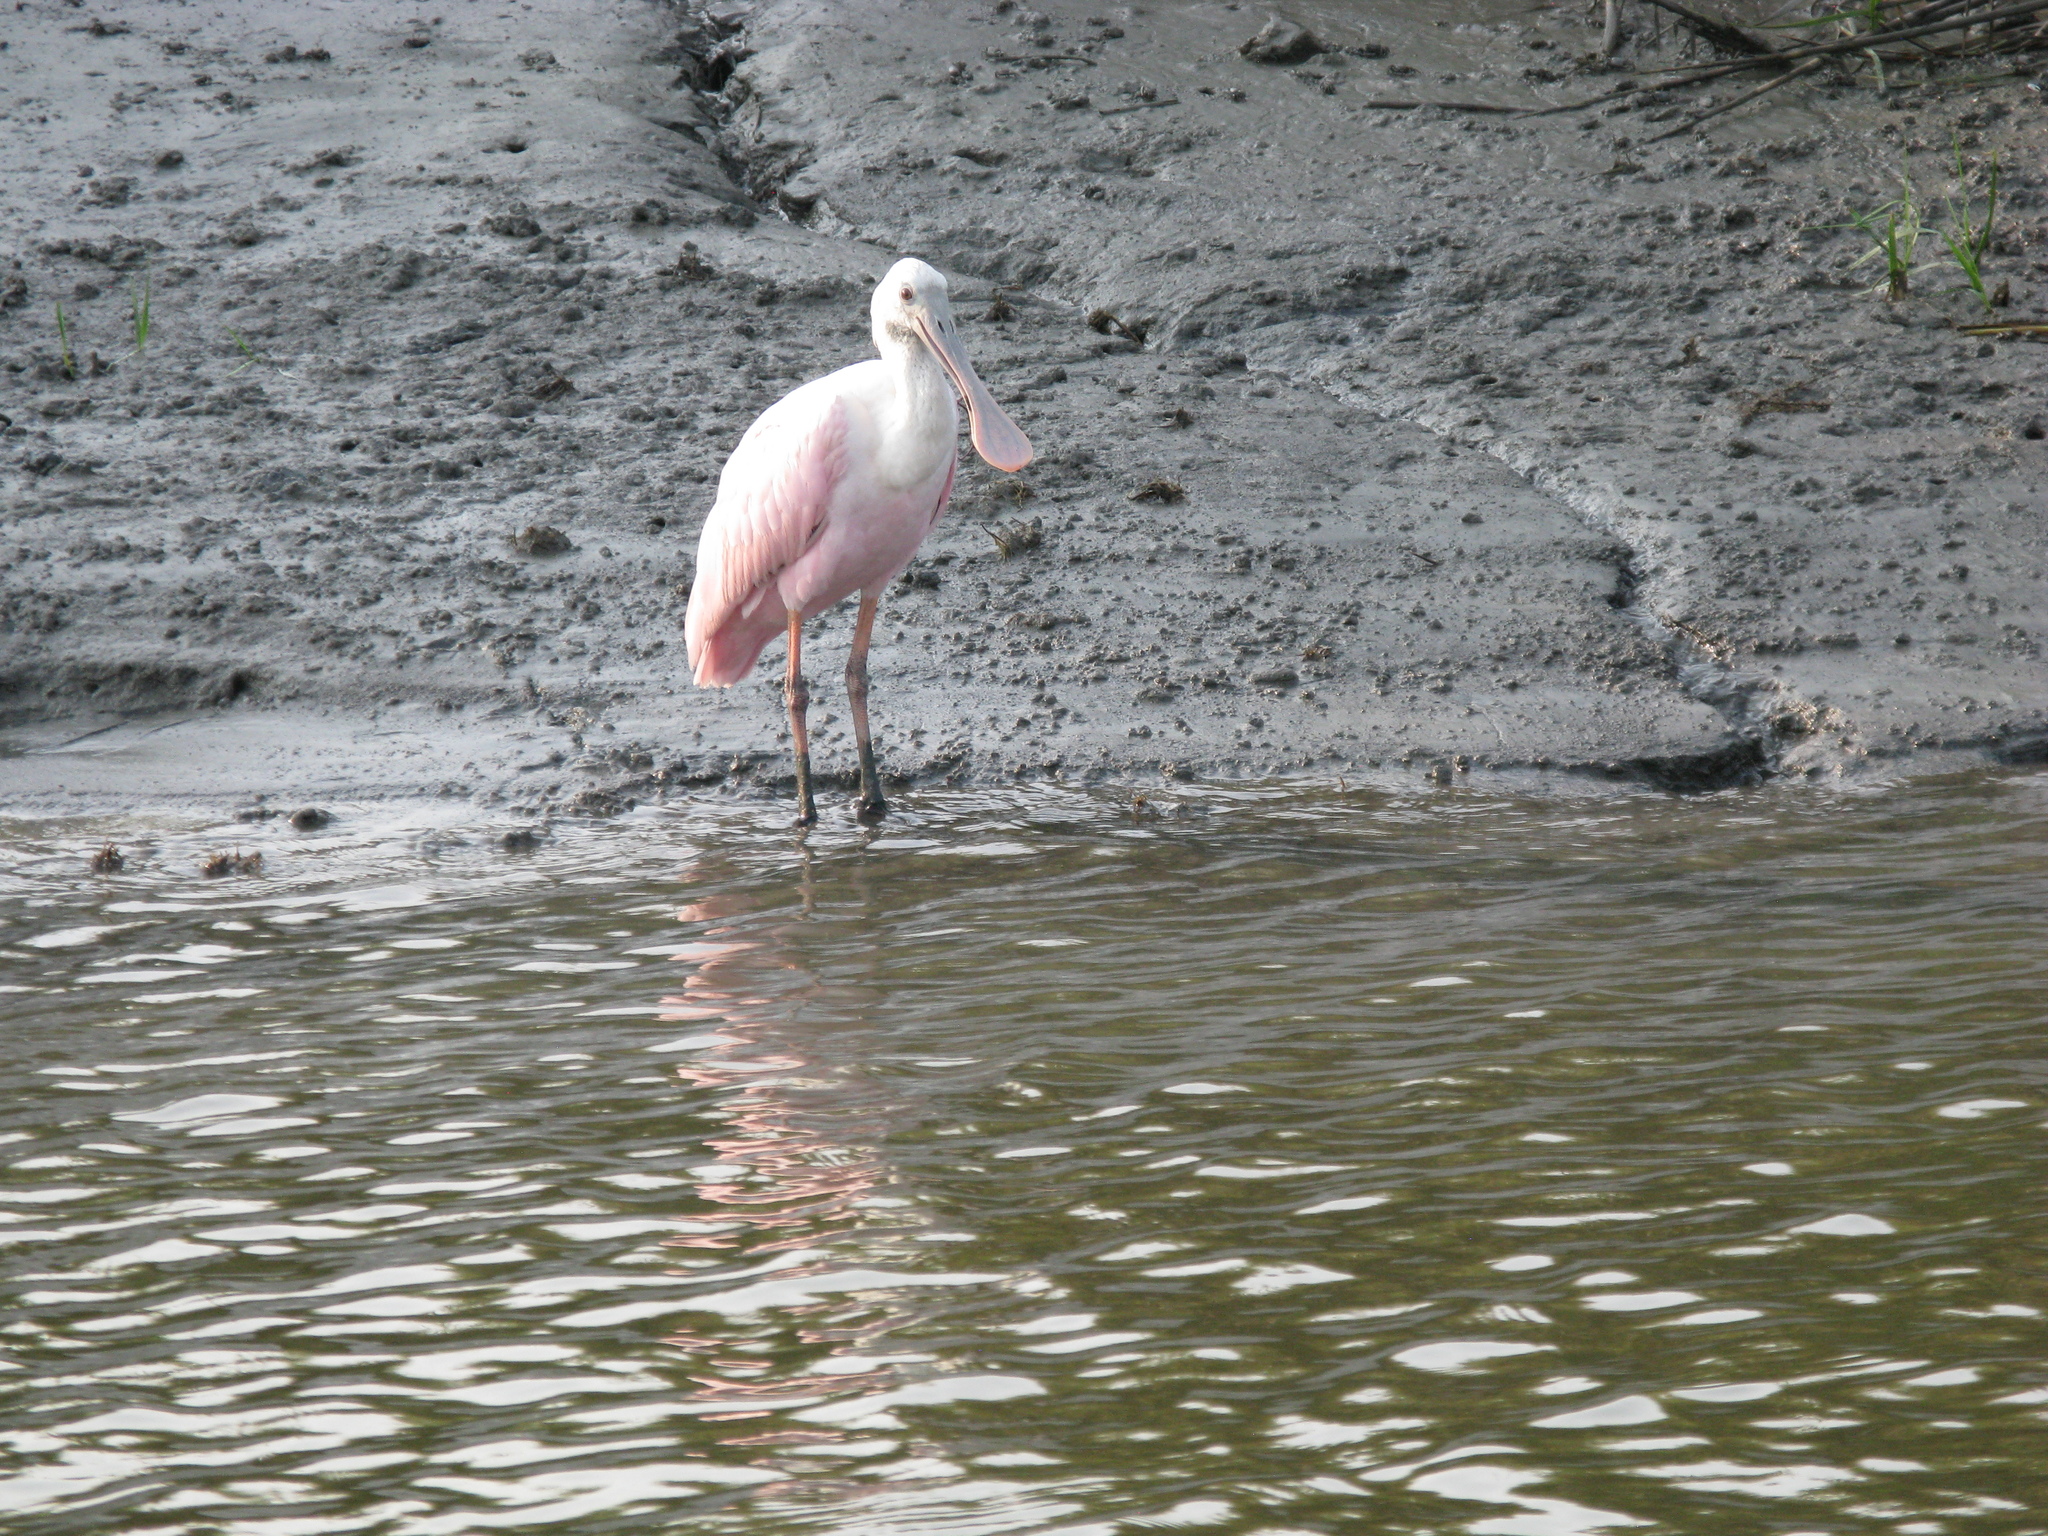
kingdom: Animalia
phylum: Chordata
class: Aves
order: Pelecaniformes
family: Threskiornithidae
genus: Platalea
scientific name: Platalea ajaja
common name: Roseate spoonbill
